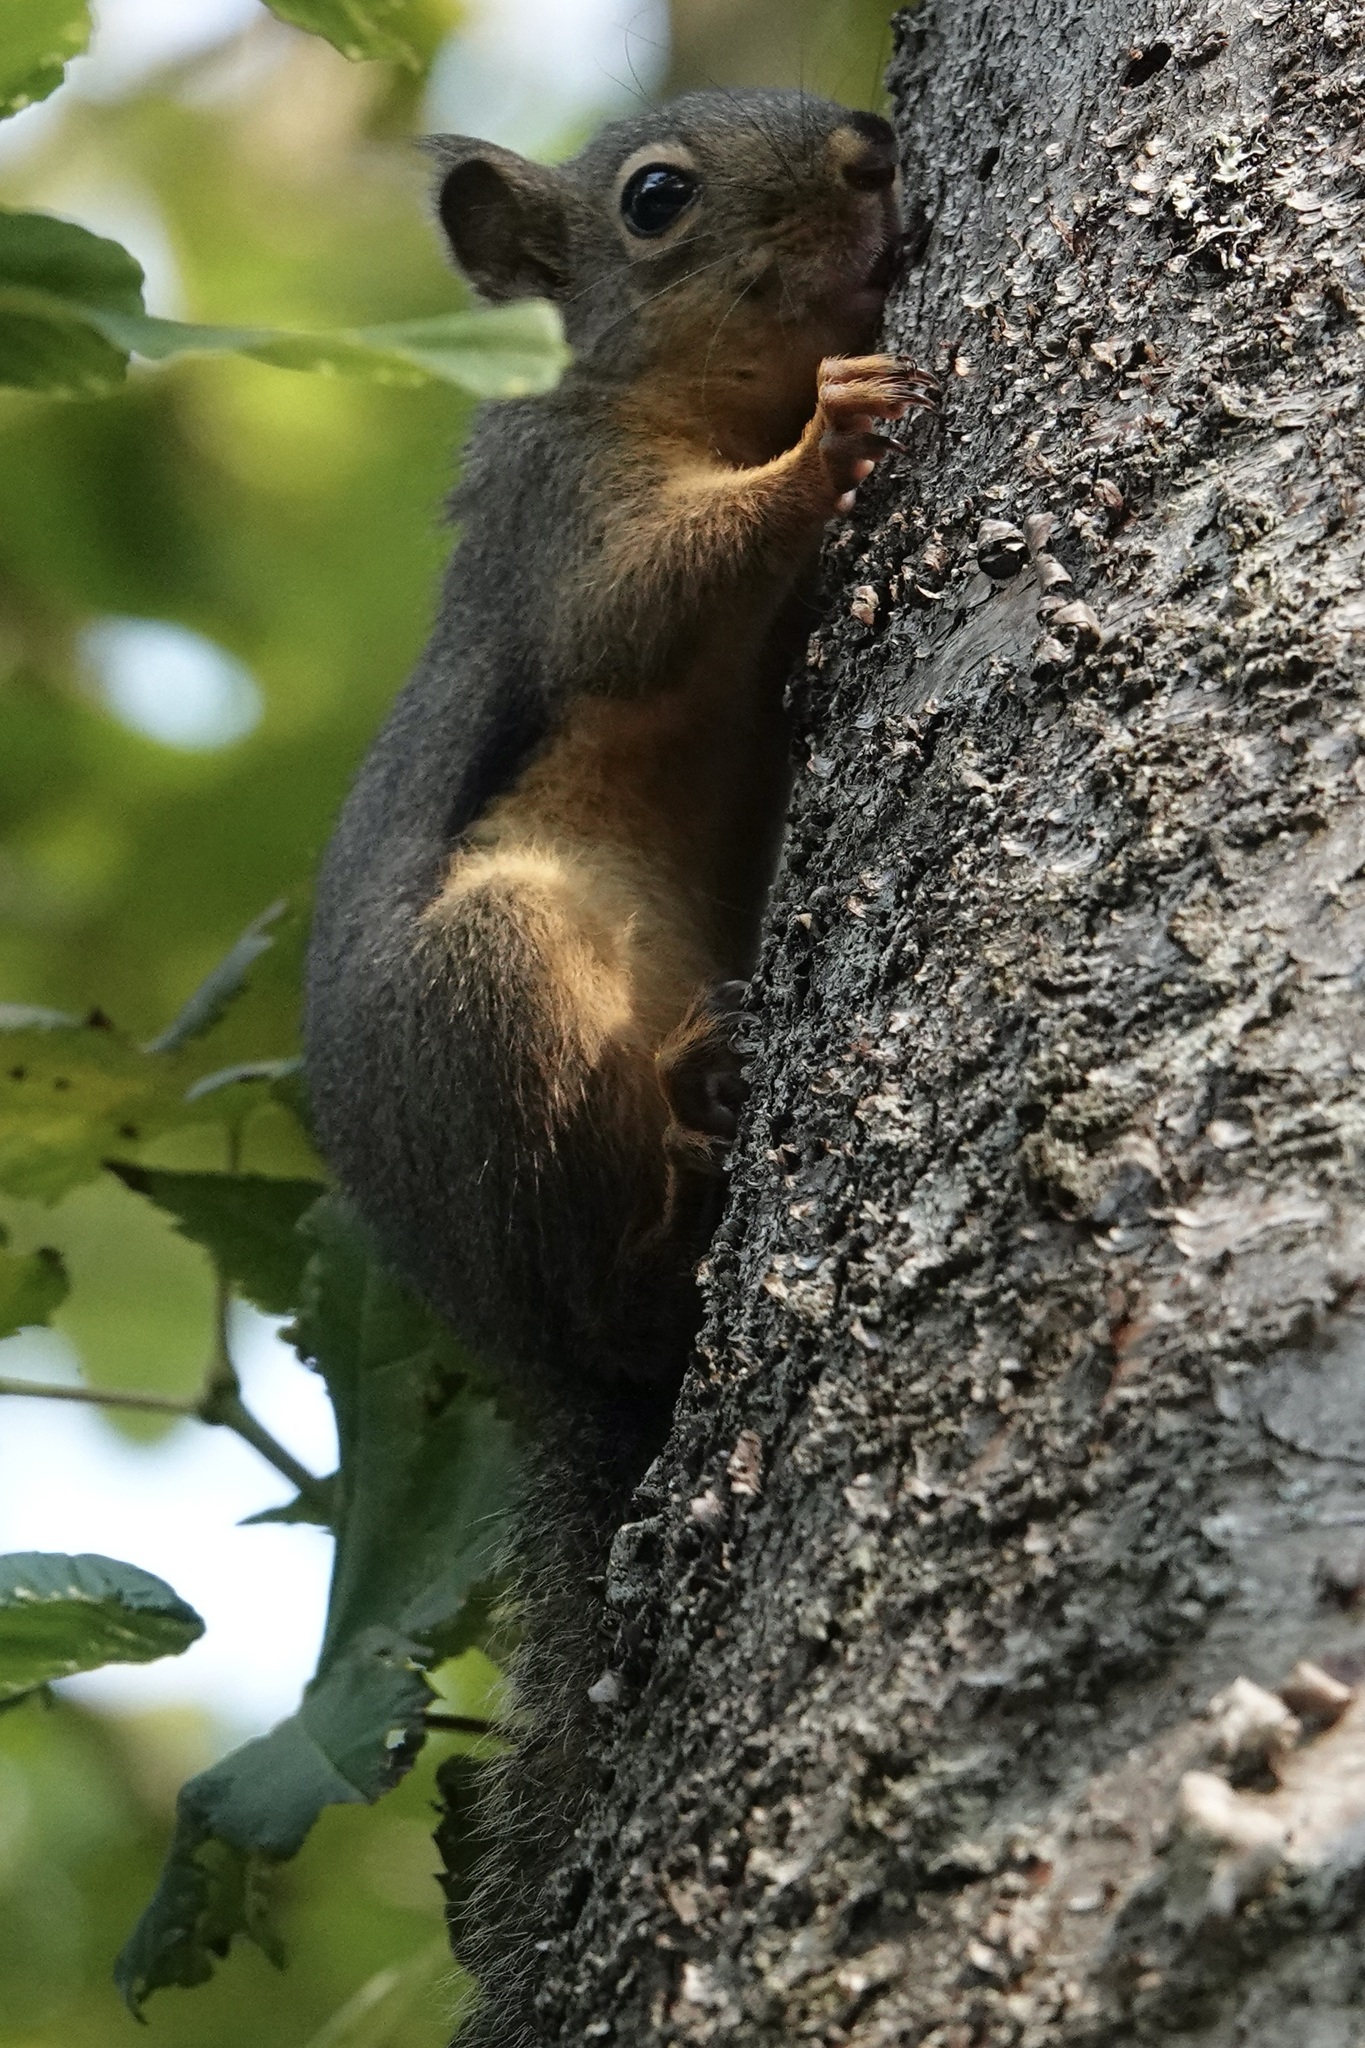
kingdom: Animalia
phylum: Chordata
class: Mammalia
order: Rodentia
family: Sciuridae
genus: Tamiasciurus
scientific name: Tamiasciurus douglasii
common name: Douglas's squirrel
